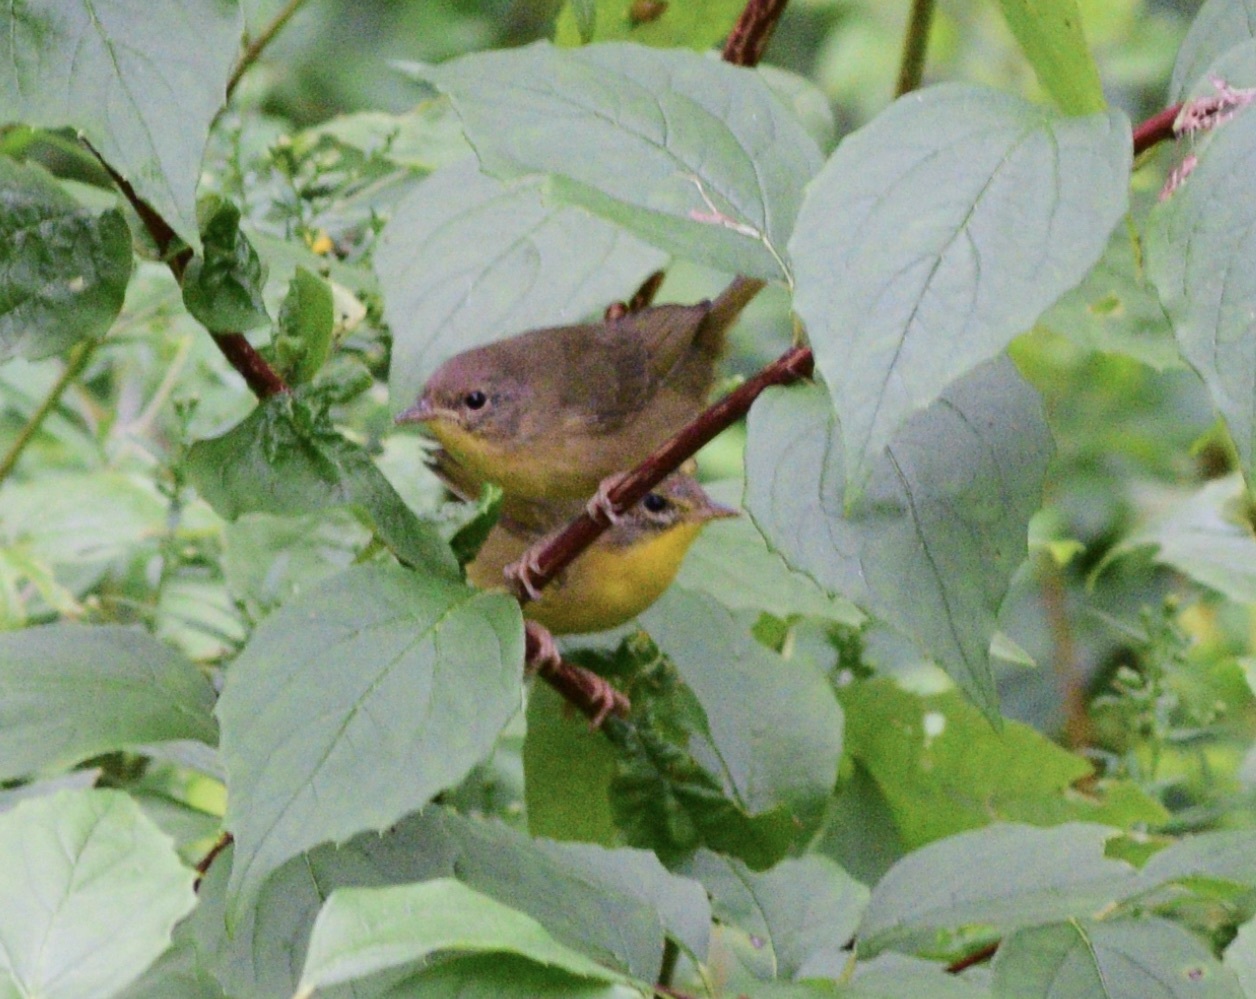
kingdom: Animalia
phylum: Chordata
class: Aves
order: Passeriformes
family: Parulidae
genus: Geothlypis
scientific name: Geothlypis trichas
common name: Common yellowthroat
